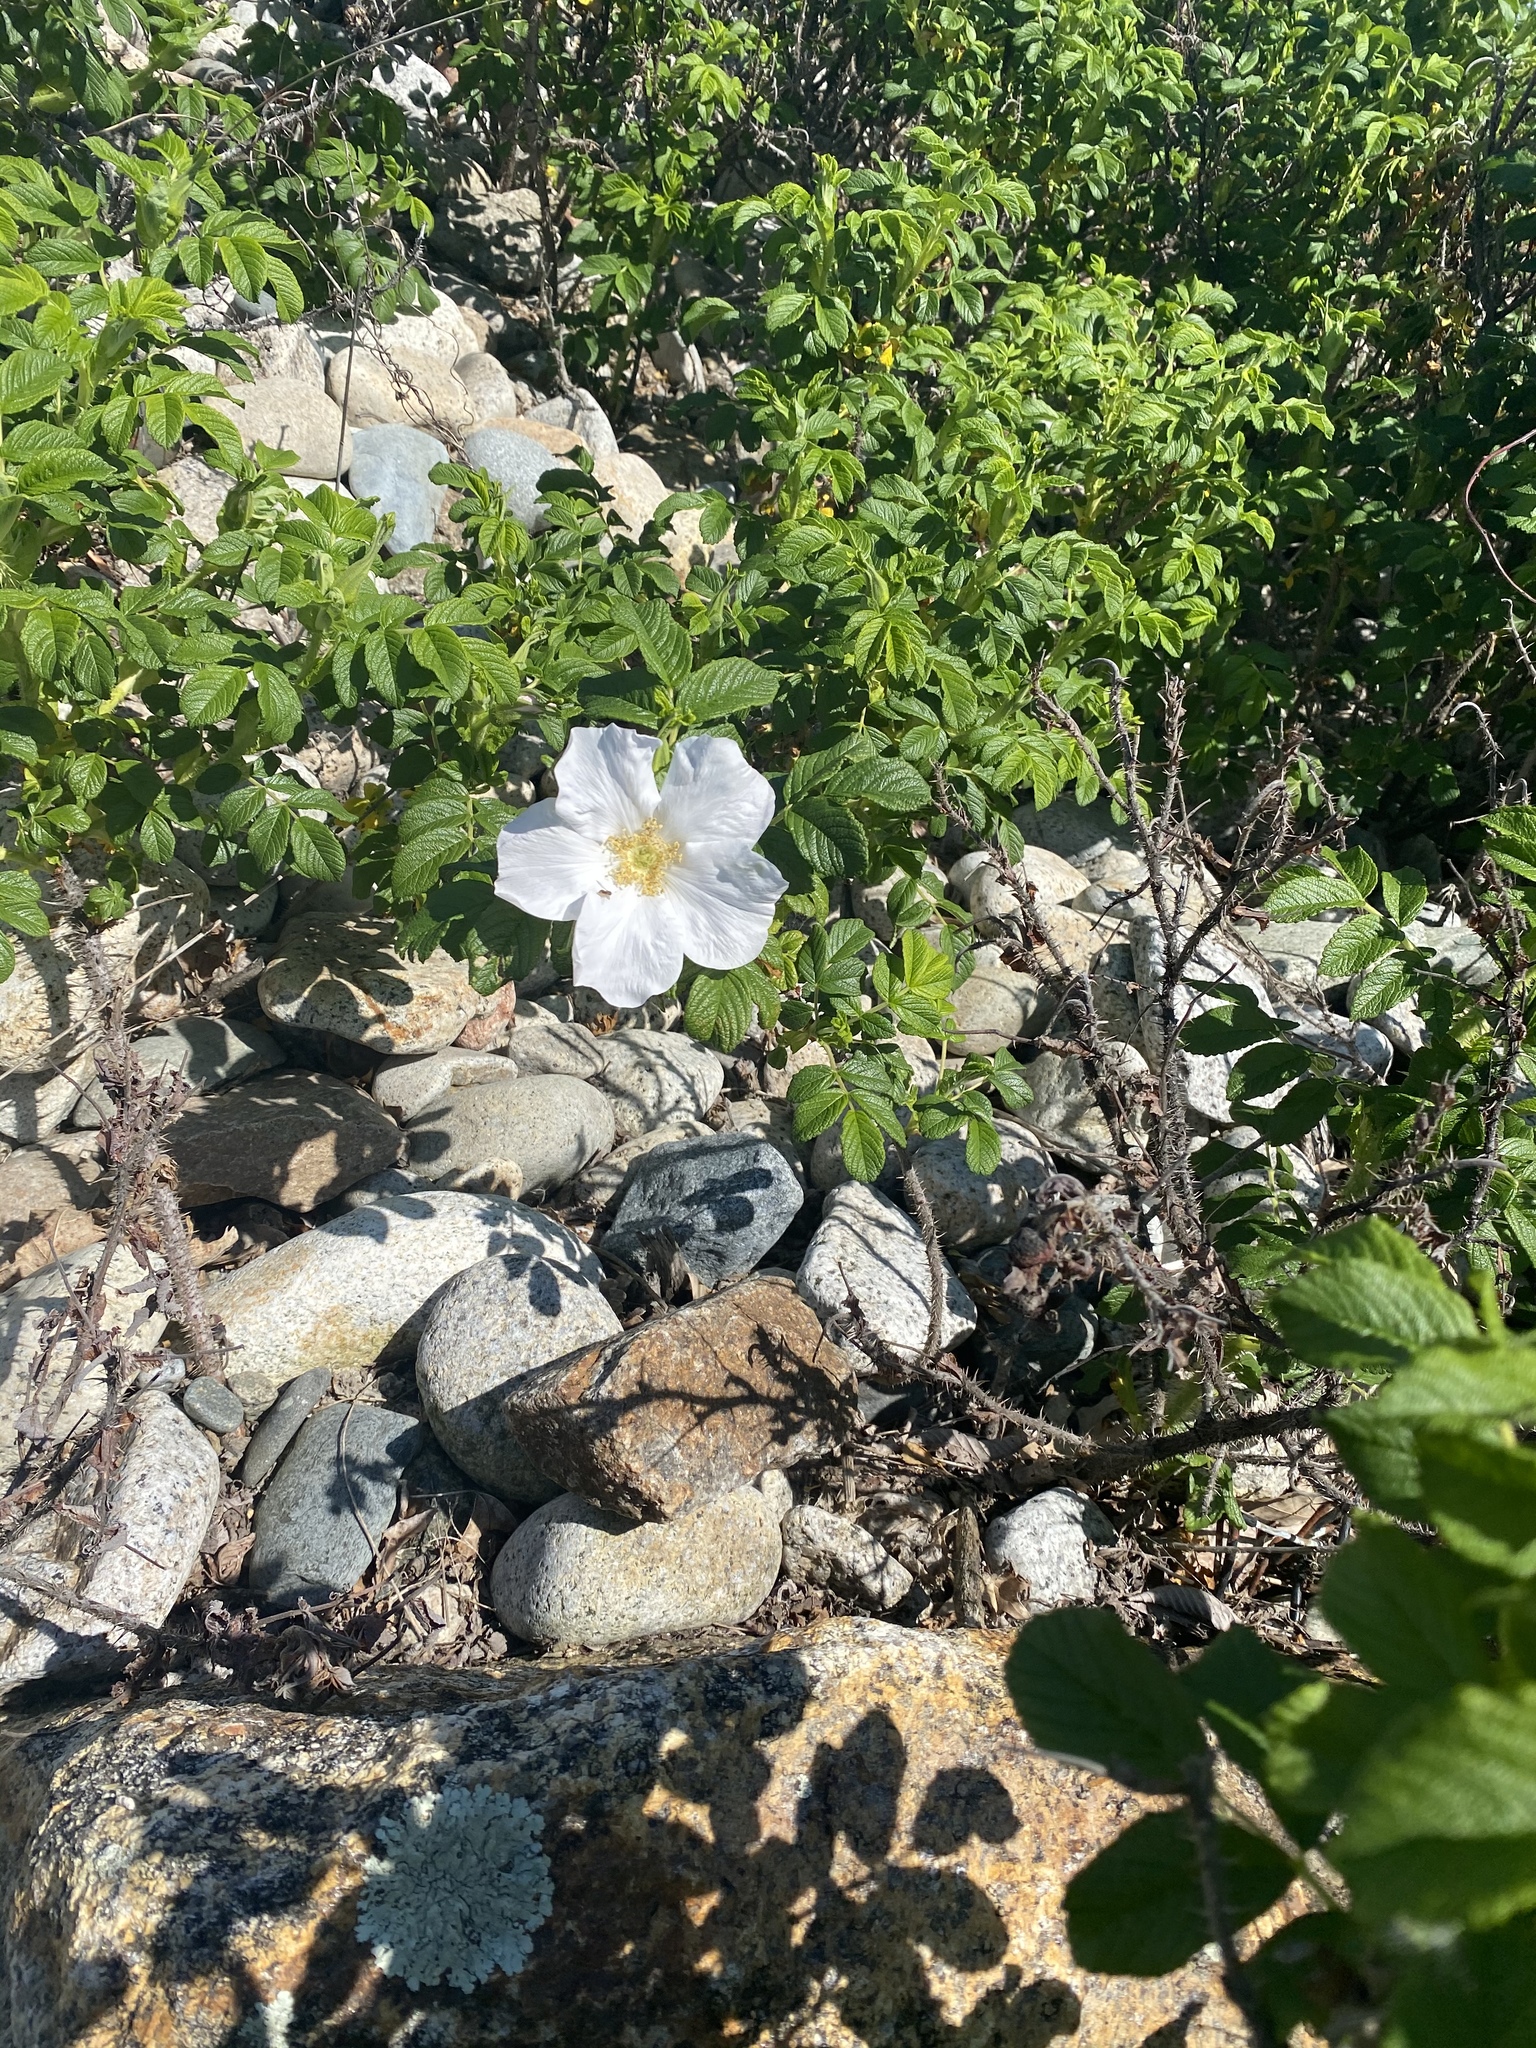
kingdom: Plantae
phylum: Tracheophyta
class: Magnoliopsida
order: Rosales
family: Rosaceae
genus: Rosa
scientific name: Rosa rugosa
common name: Japanese rose
